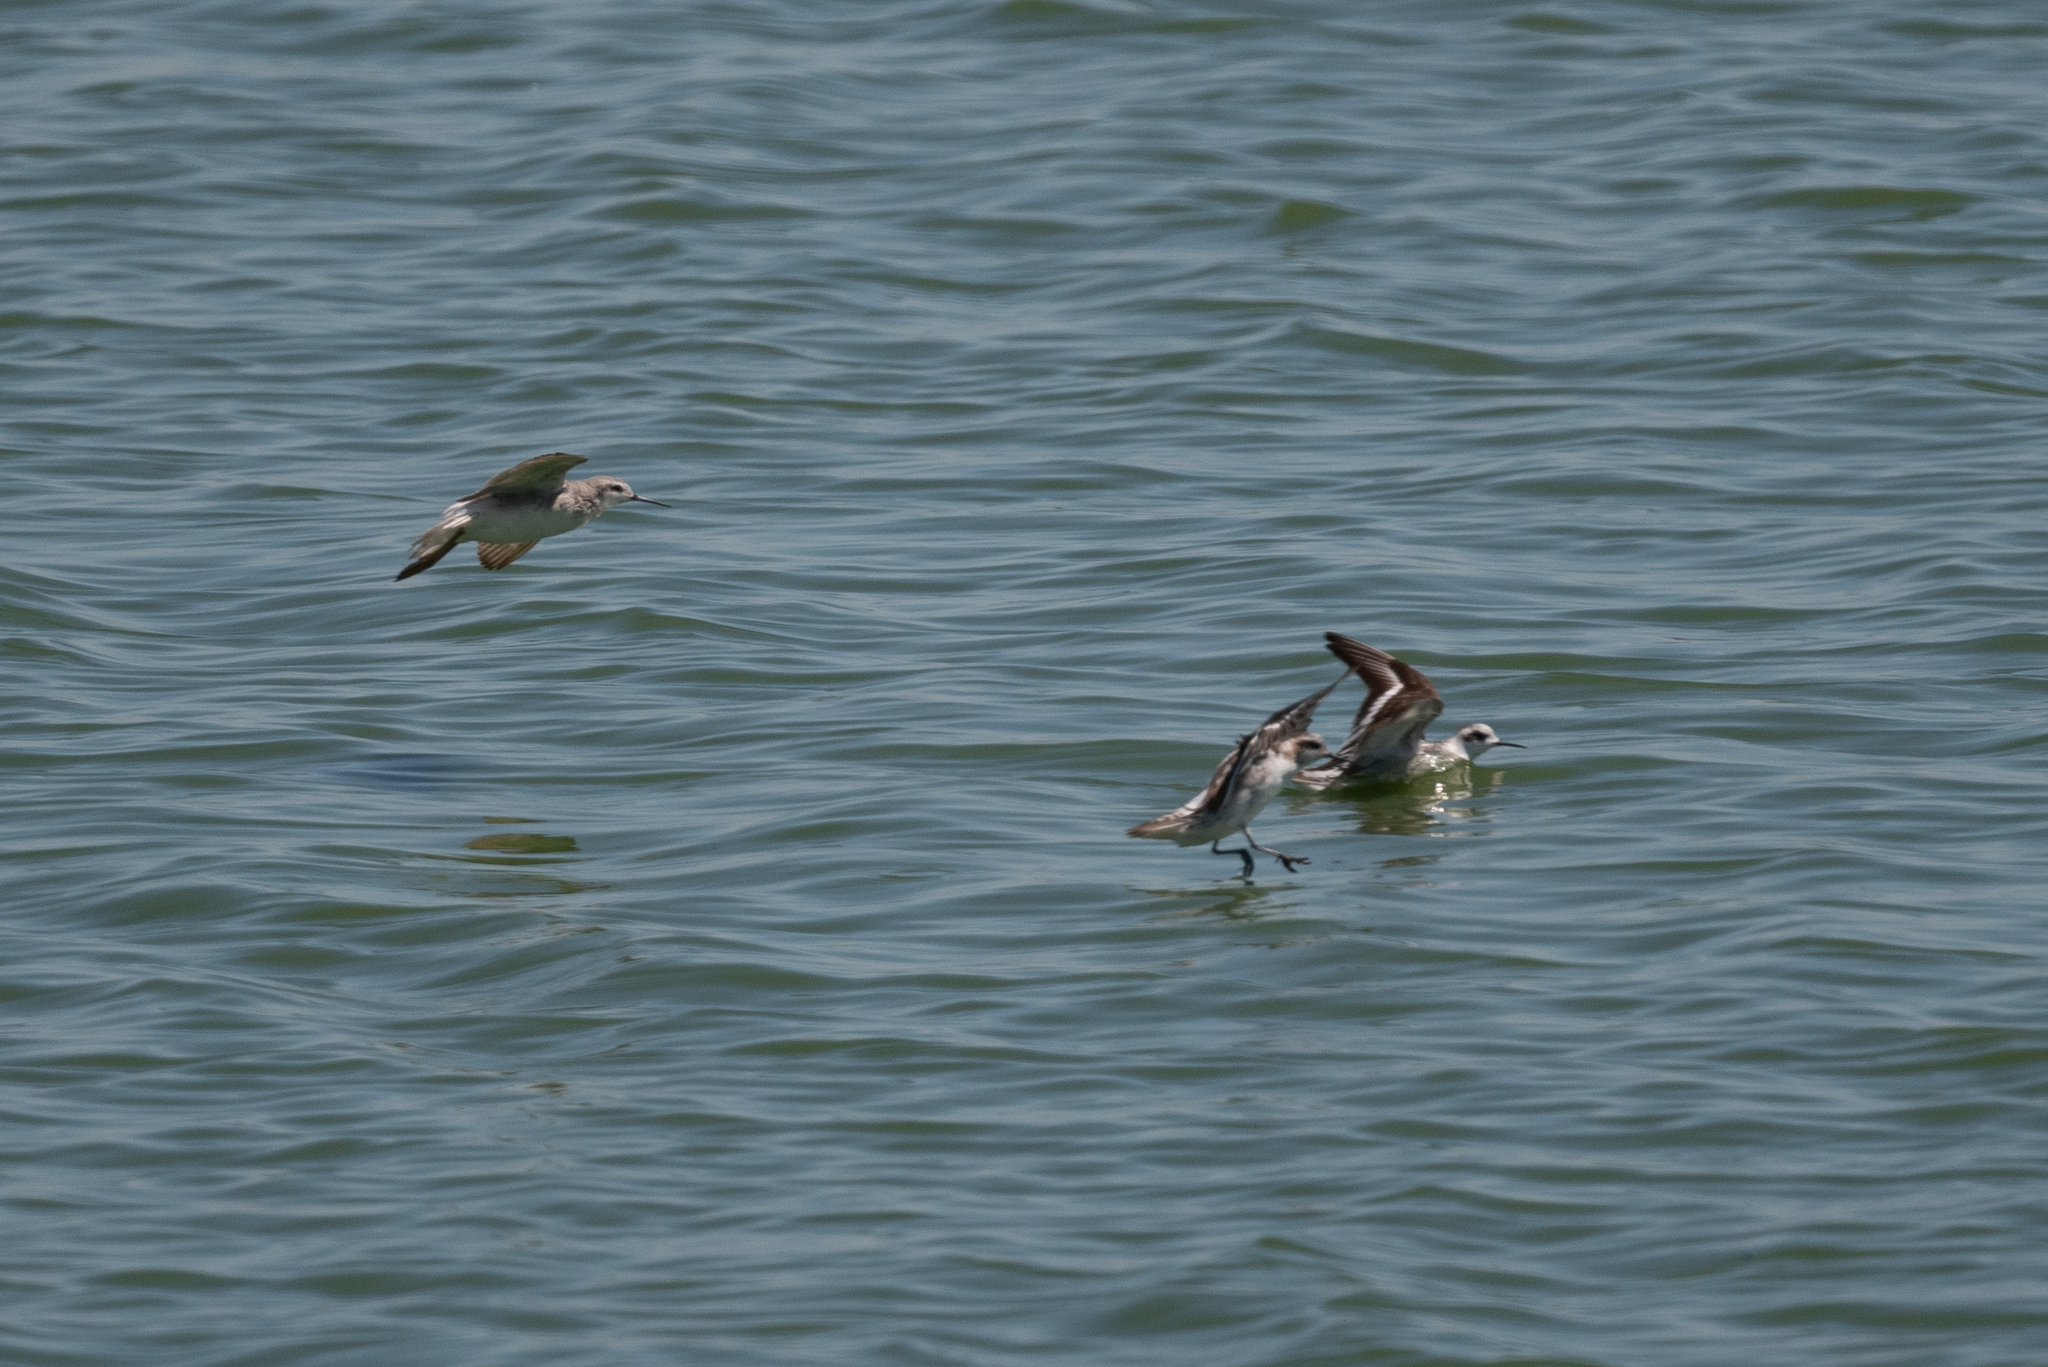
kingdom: Animalia
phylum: Chordata
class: Aves
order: Charadriiformes
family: Scolopacidae
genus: Phalaropus
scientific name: Phalaropus lobatus
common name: Red-necked phalarope
